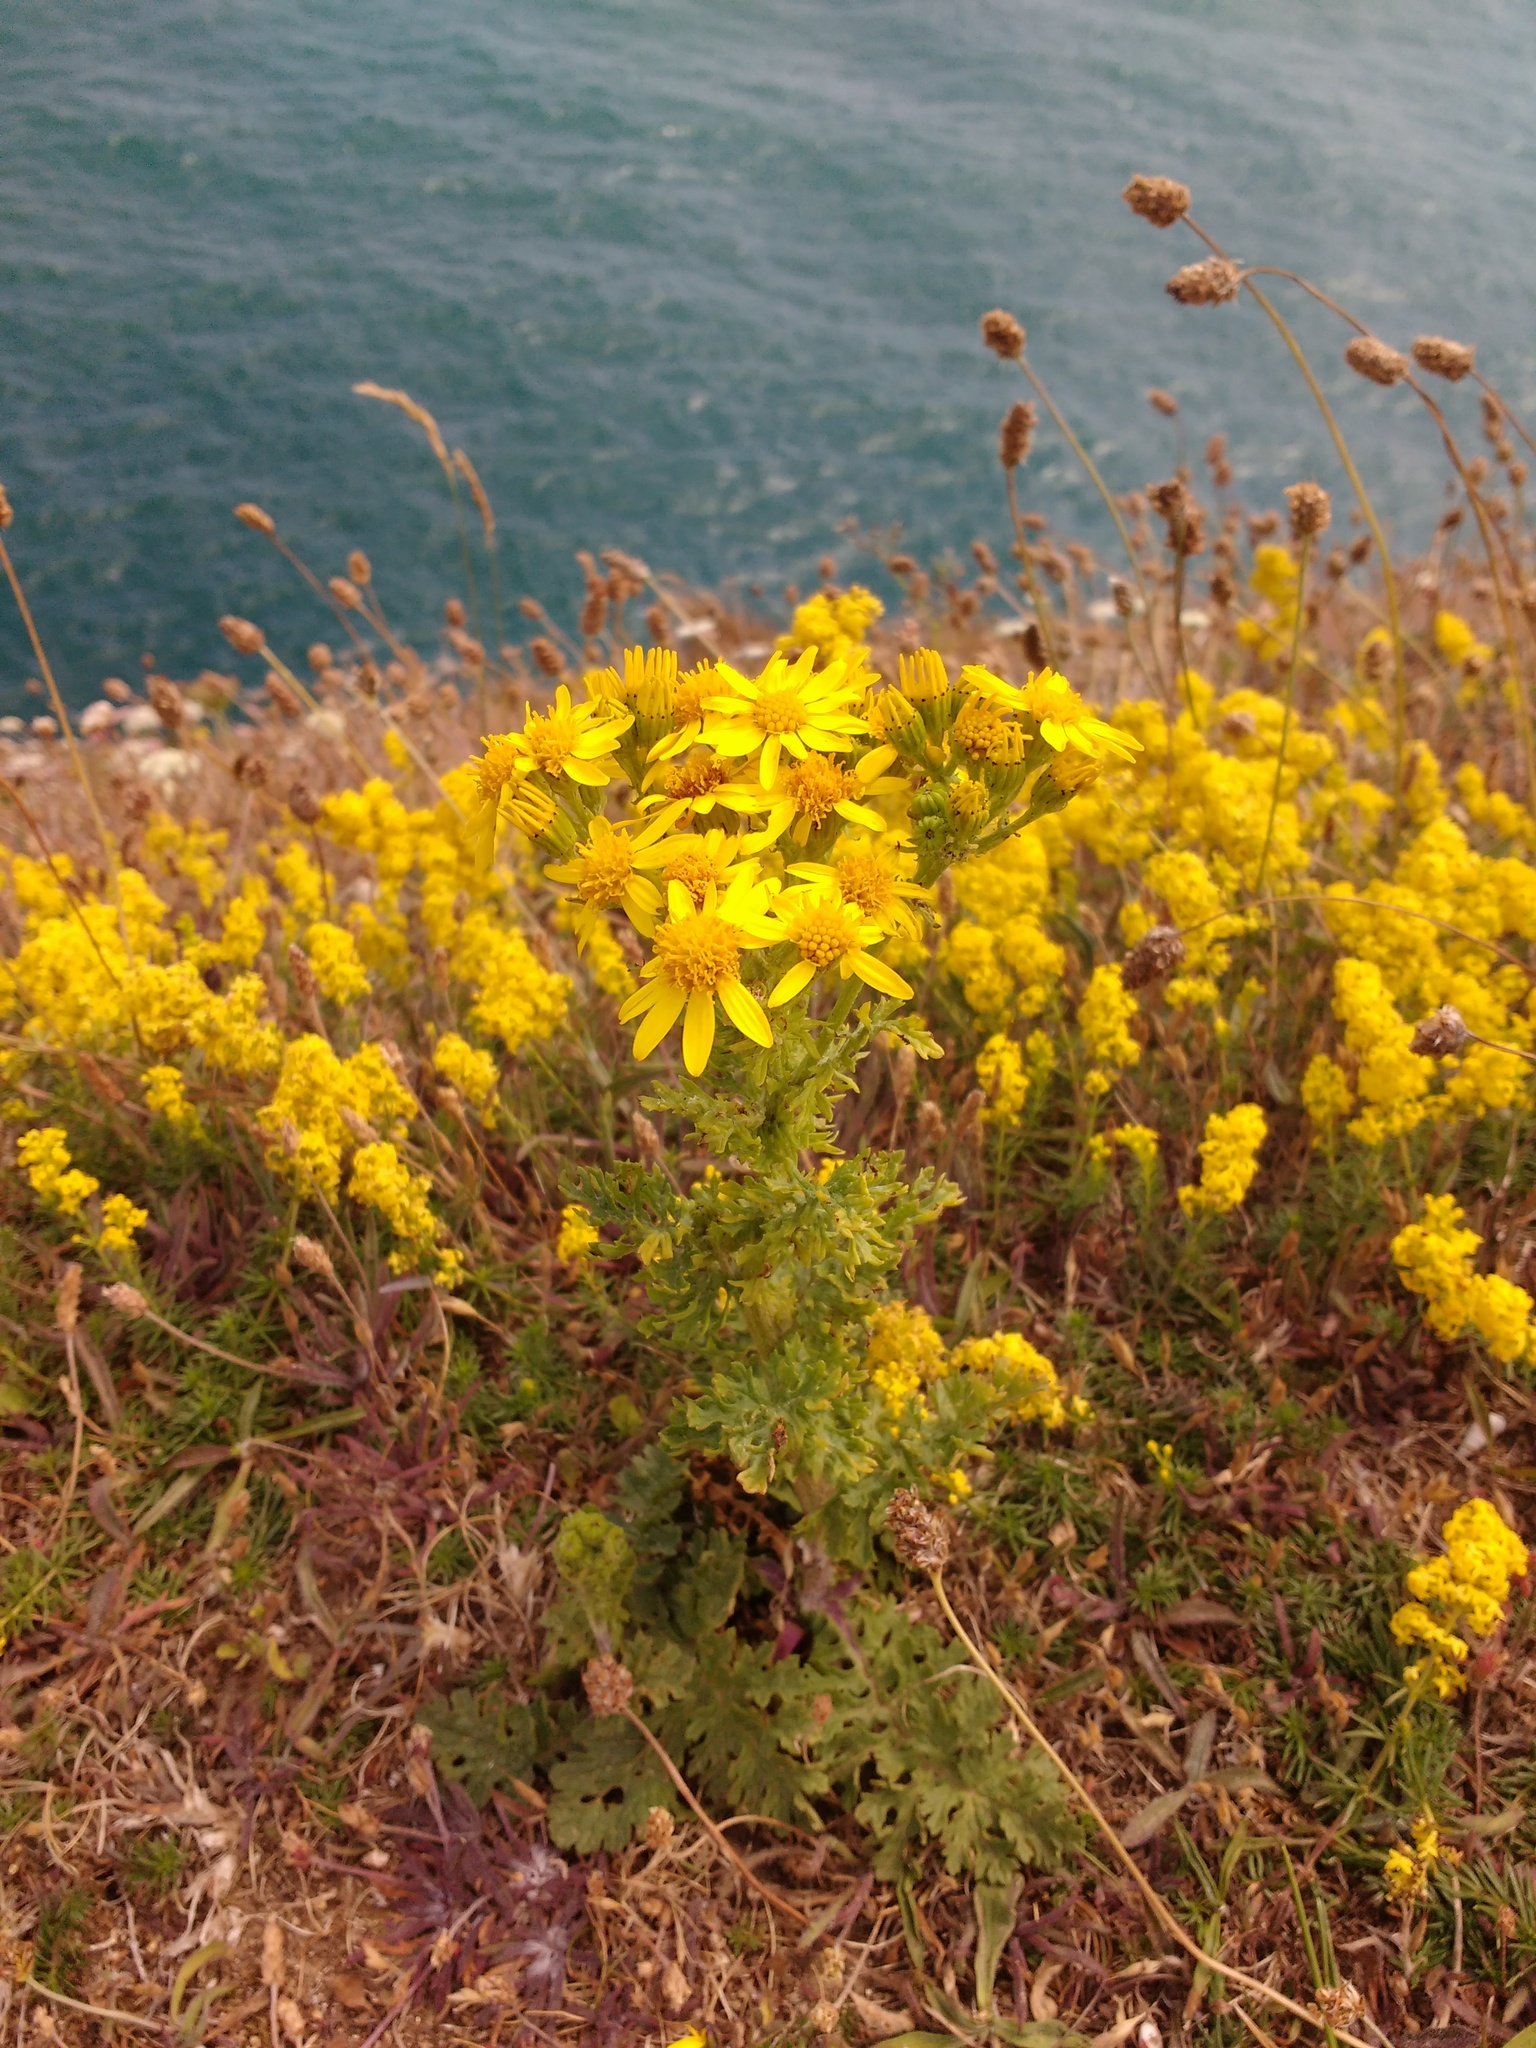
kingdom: Plantae
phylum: Tracheophyta
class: Magnoliopsida
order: Asterales
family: Asteraceae
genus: Jacobaea
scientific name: Jacobaea vulgaris
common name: Stinking willie
